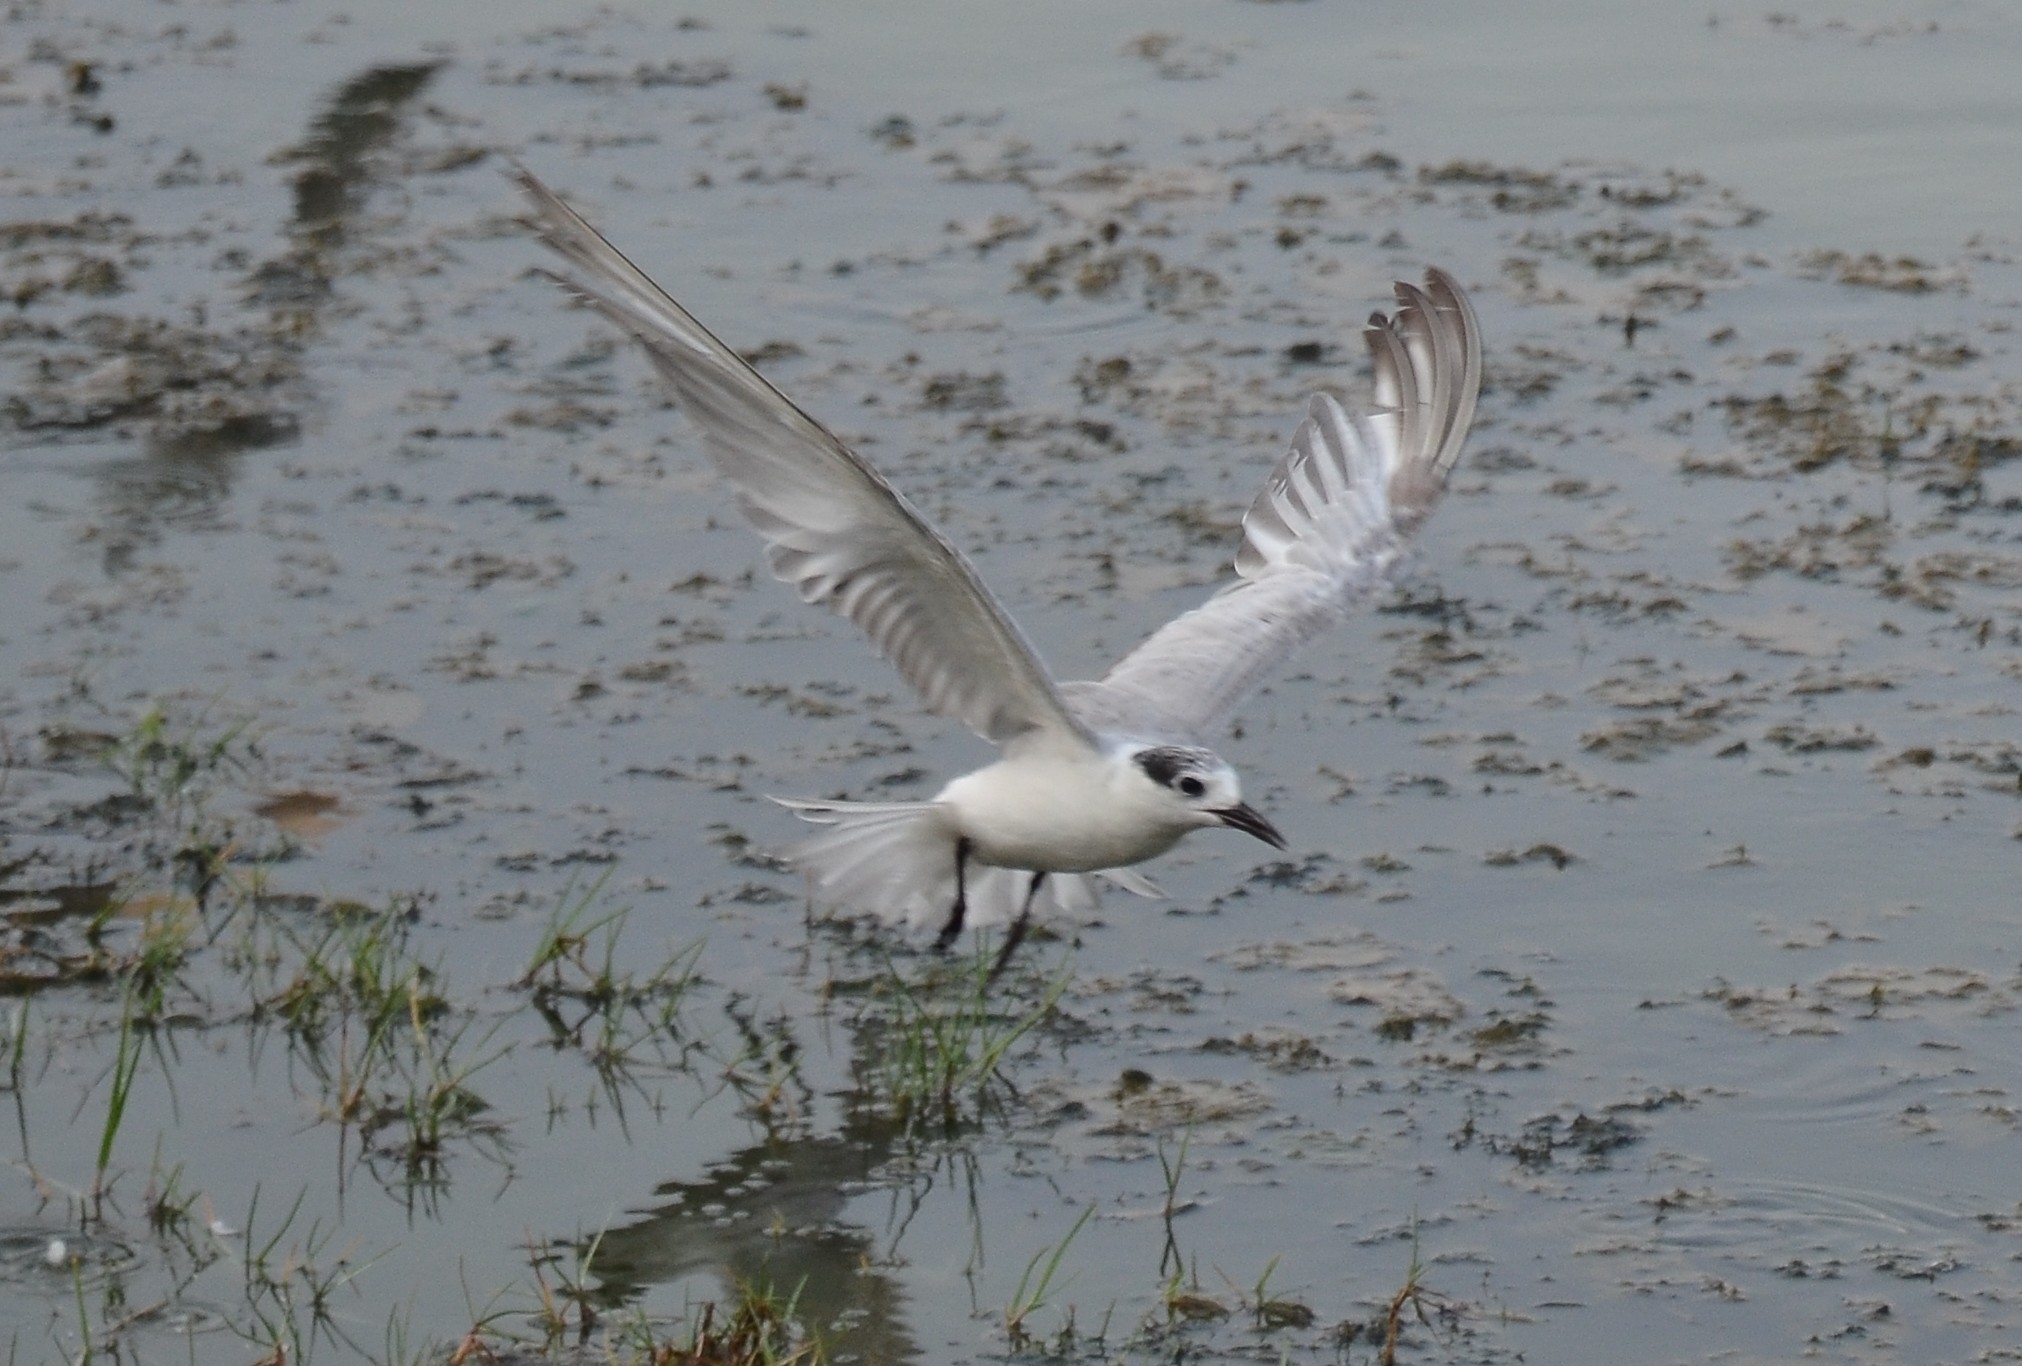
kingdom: Animalia
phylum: Chordata
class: Aves
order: Charadriiformes
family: Laridae
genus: Chlidonias
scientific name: Chlidonias hybrida
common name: Whiskered tern
